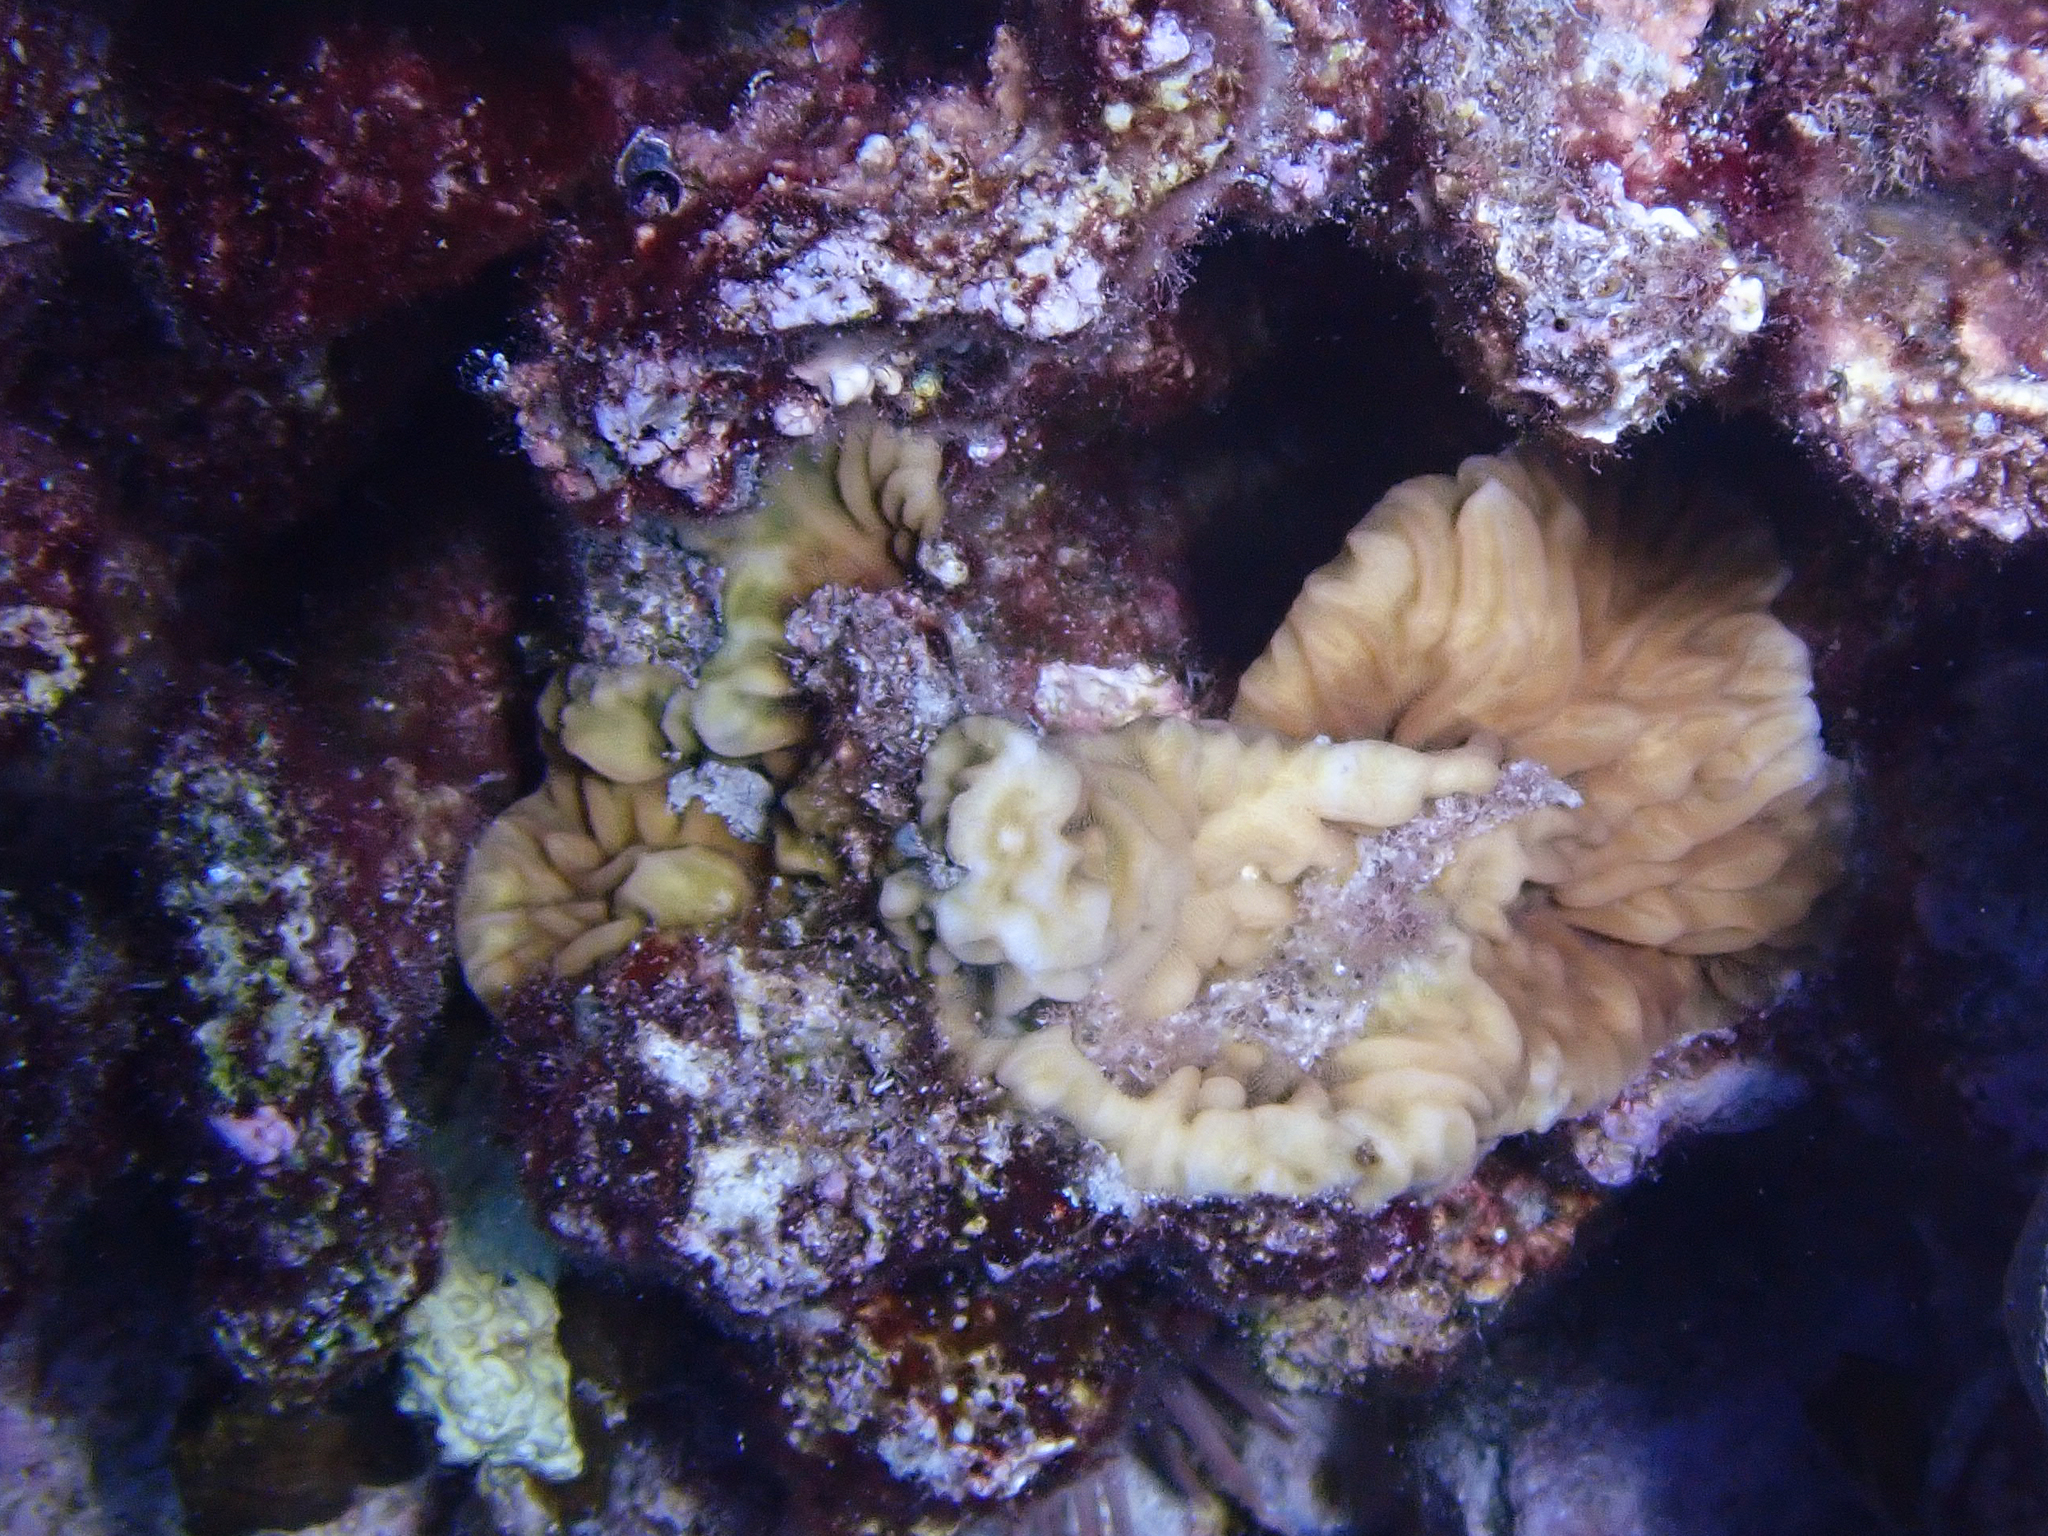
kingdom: Animalia
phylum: Cnidaria
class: Anthozoa
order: Scleractinia
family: Agariciidae
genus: Pavona
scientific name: Pavona varians
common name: Leaf coral
